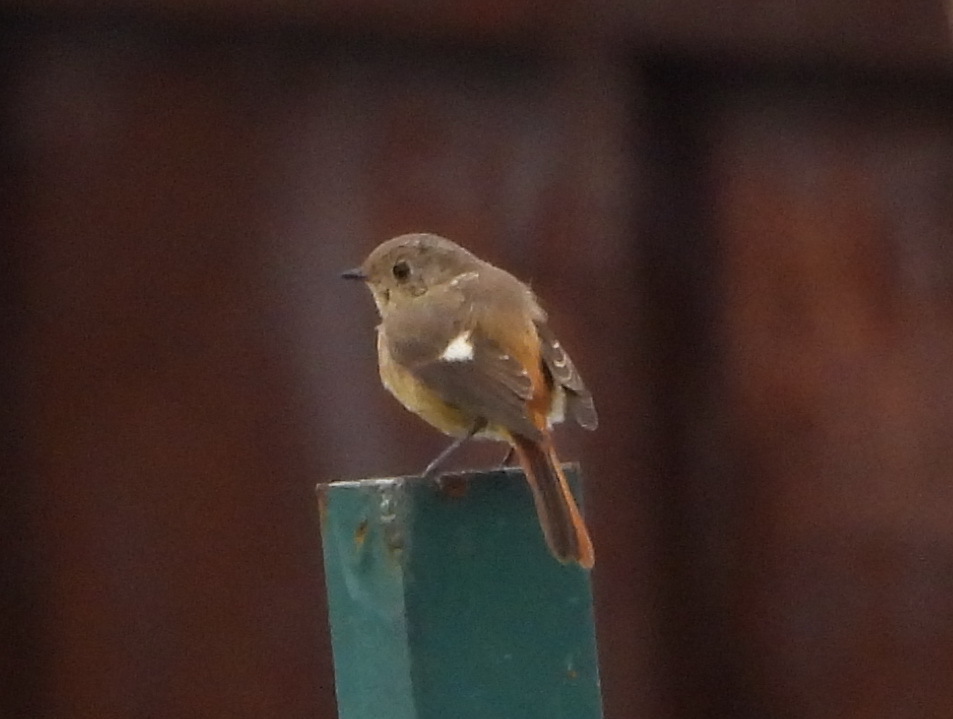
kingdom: Animalia
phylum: Chordata
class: Aves
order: Passeriformes
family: Muscicapidae
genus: Phoenicurus
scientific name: Phoenicurus auroreus
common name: Daurian redstart
